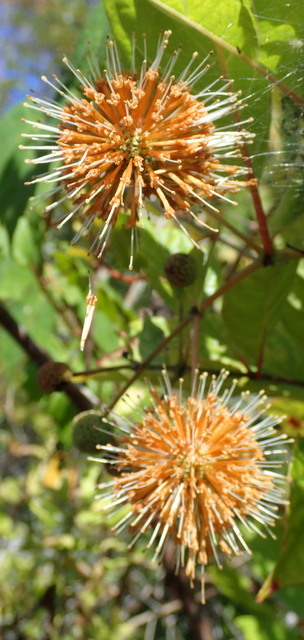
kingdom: Plantae
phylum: Tracheophyta
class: Magnoliopsida
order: Gentianales
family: Rubiaceae
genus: Cephalanthus
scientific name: Cephalanthus occidentalis
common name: Button-willow
